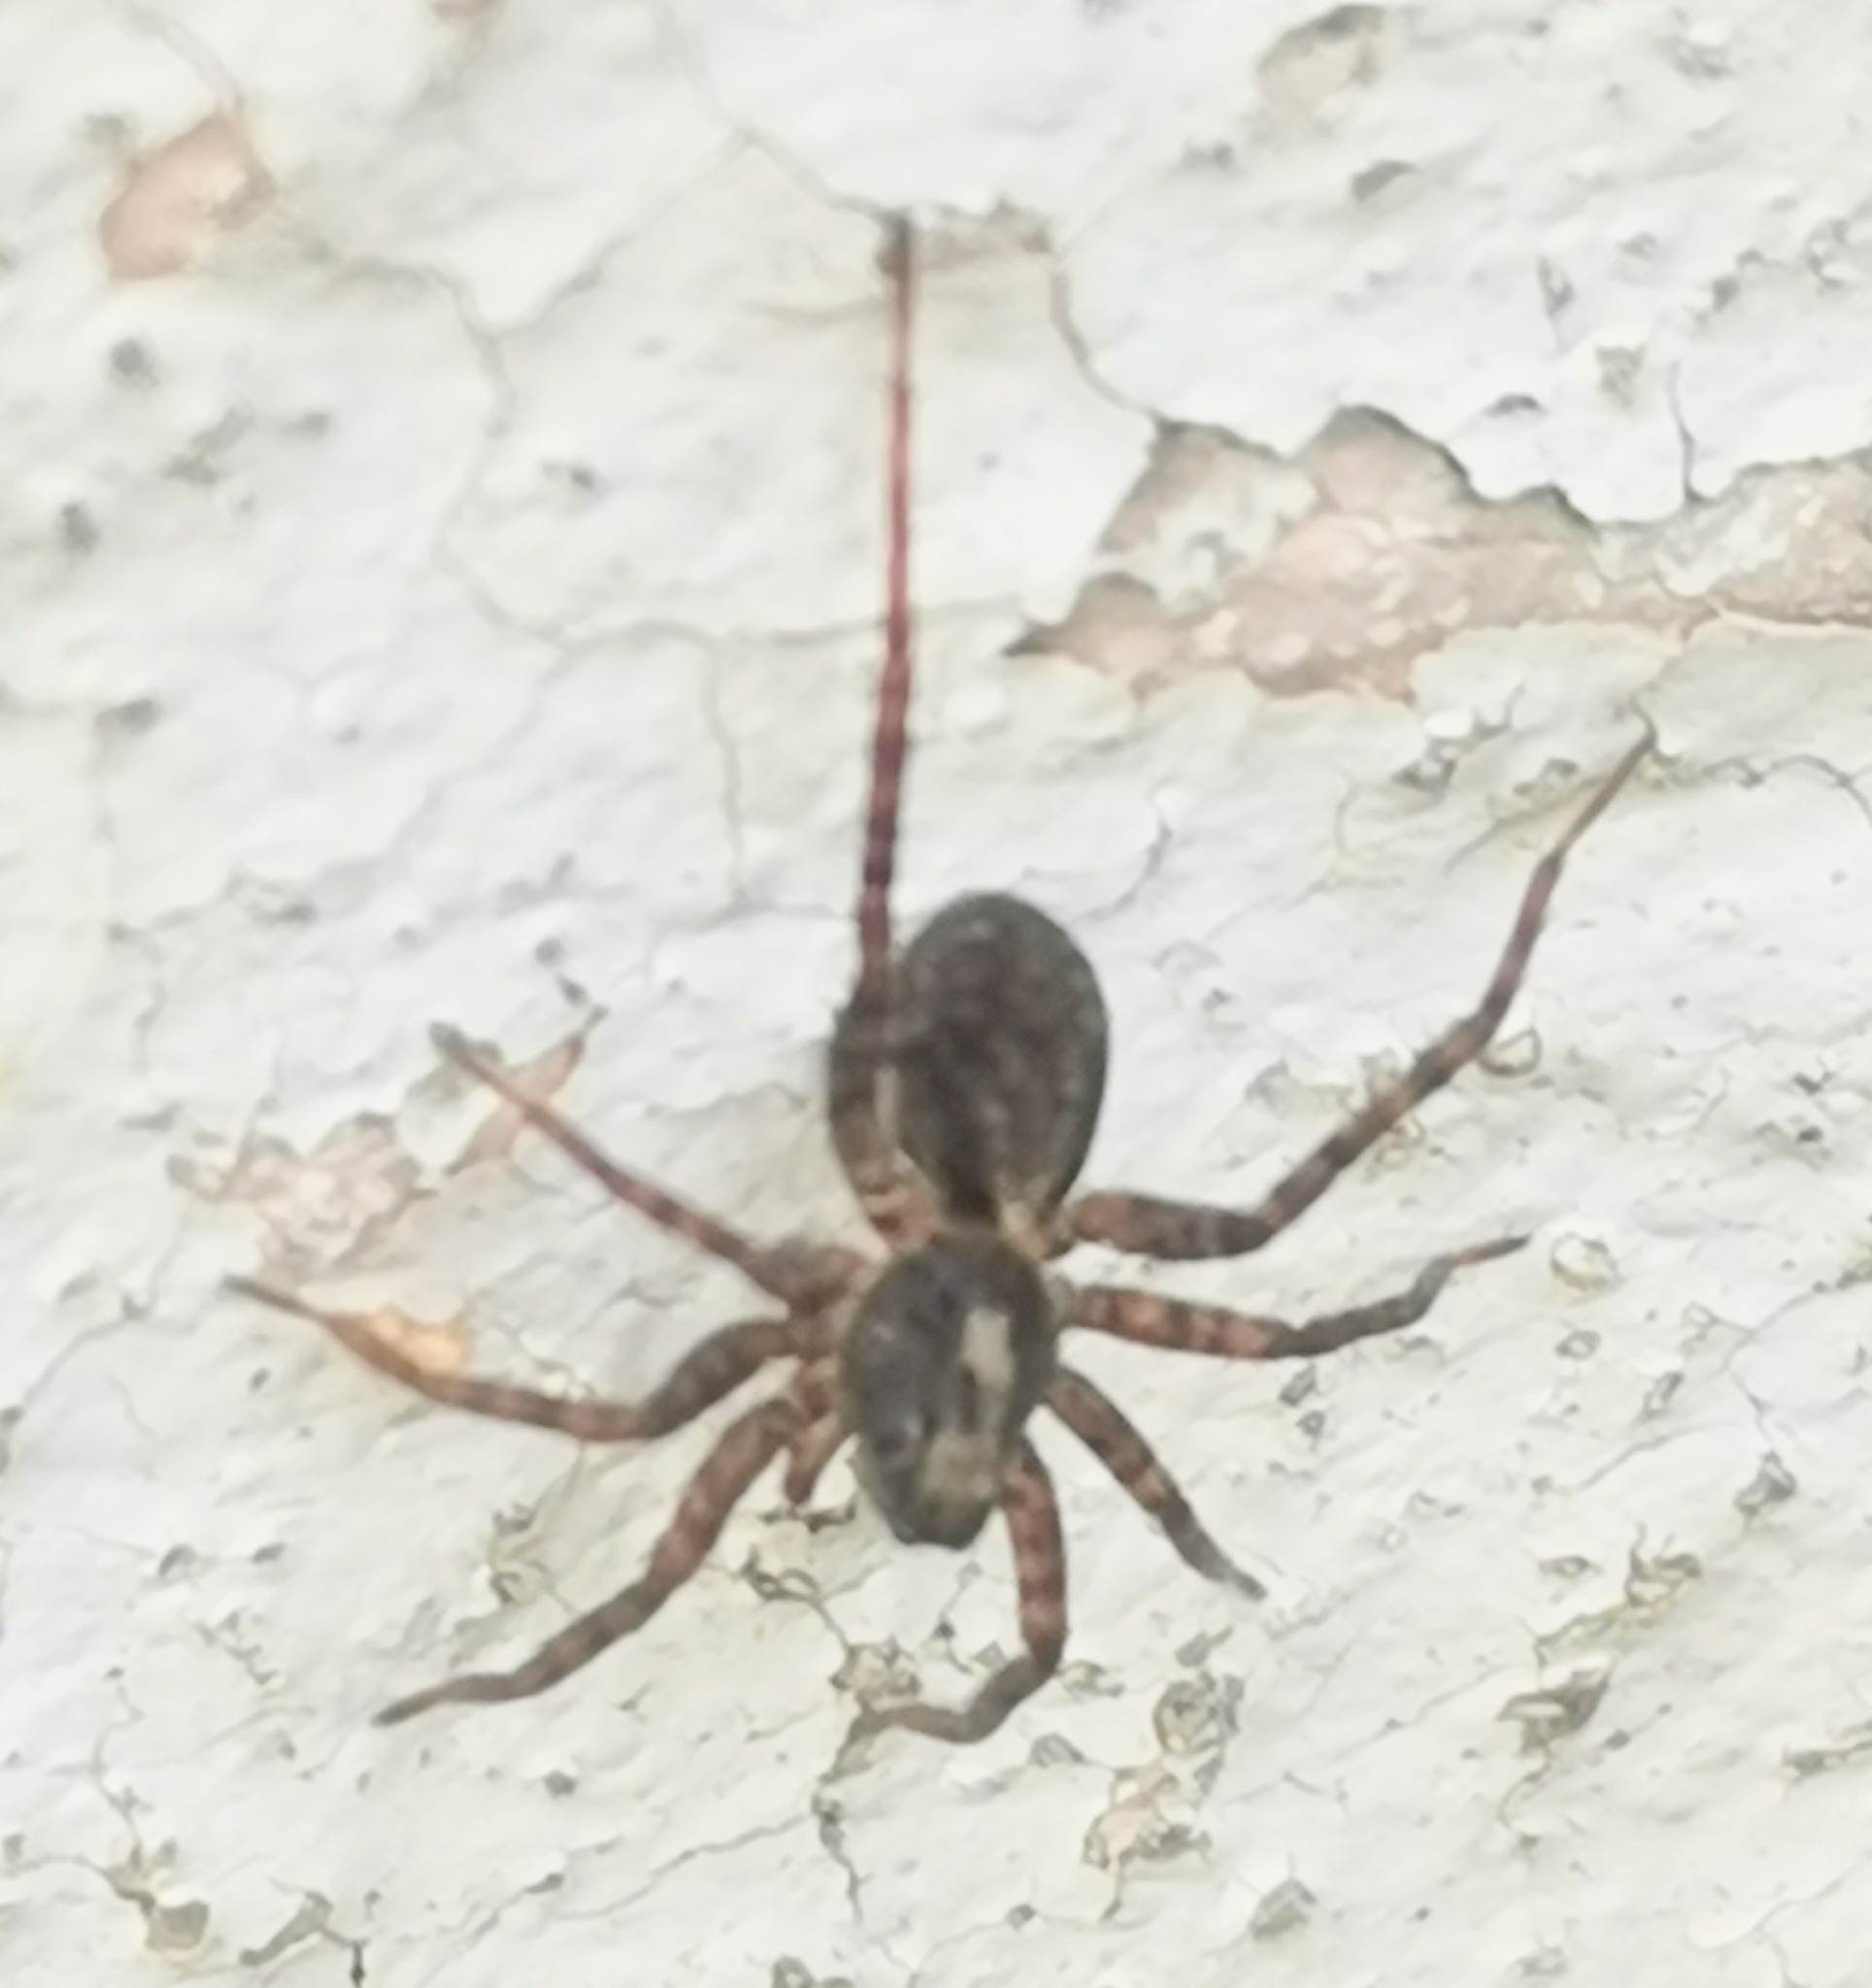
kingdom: Animalia
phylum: Arthropoda
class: Arachnida
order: Araneae
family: Lycosidae
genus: Pardosa
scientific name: Pardosa
